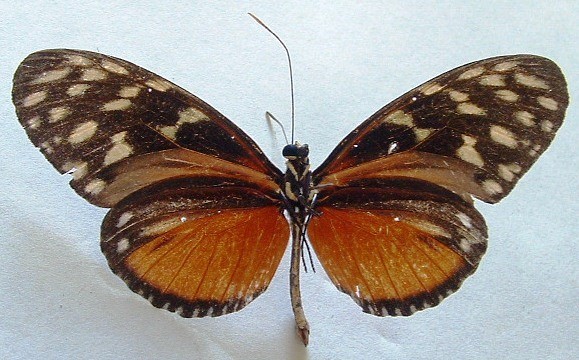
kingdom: Animalia
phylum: Arthropoda
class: Insecta
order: Lepidoptera
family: Nymphalidae
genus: Heliconius
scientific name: Heliconius hecale
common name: Tiger longwing
